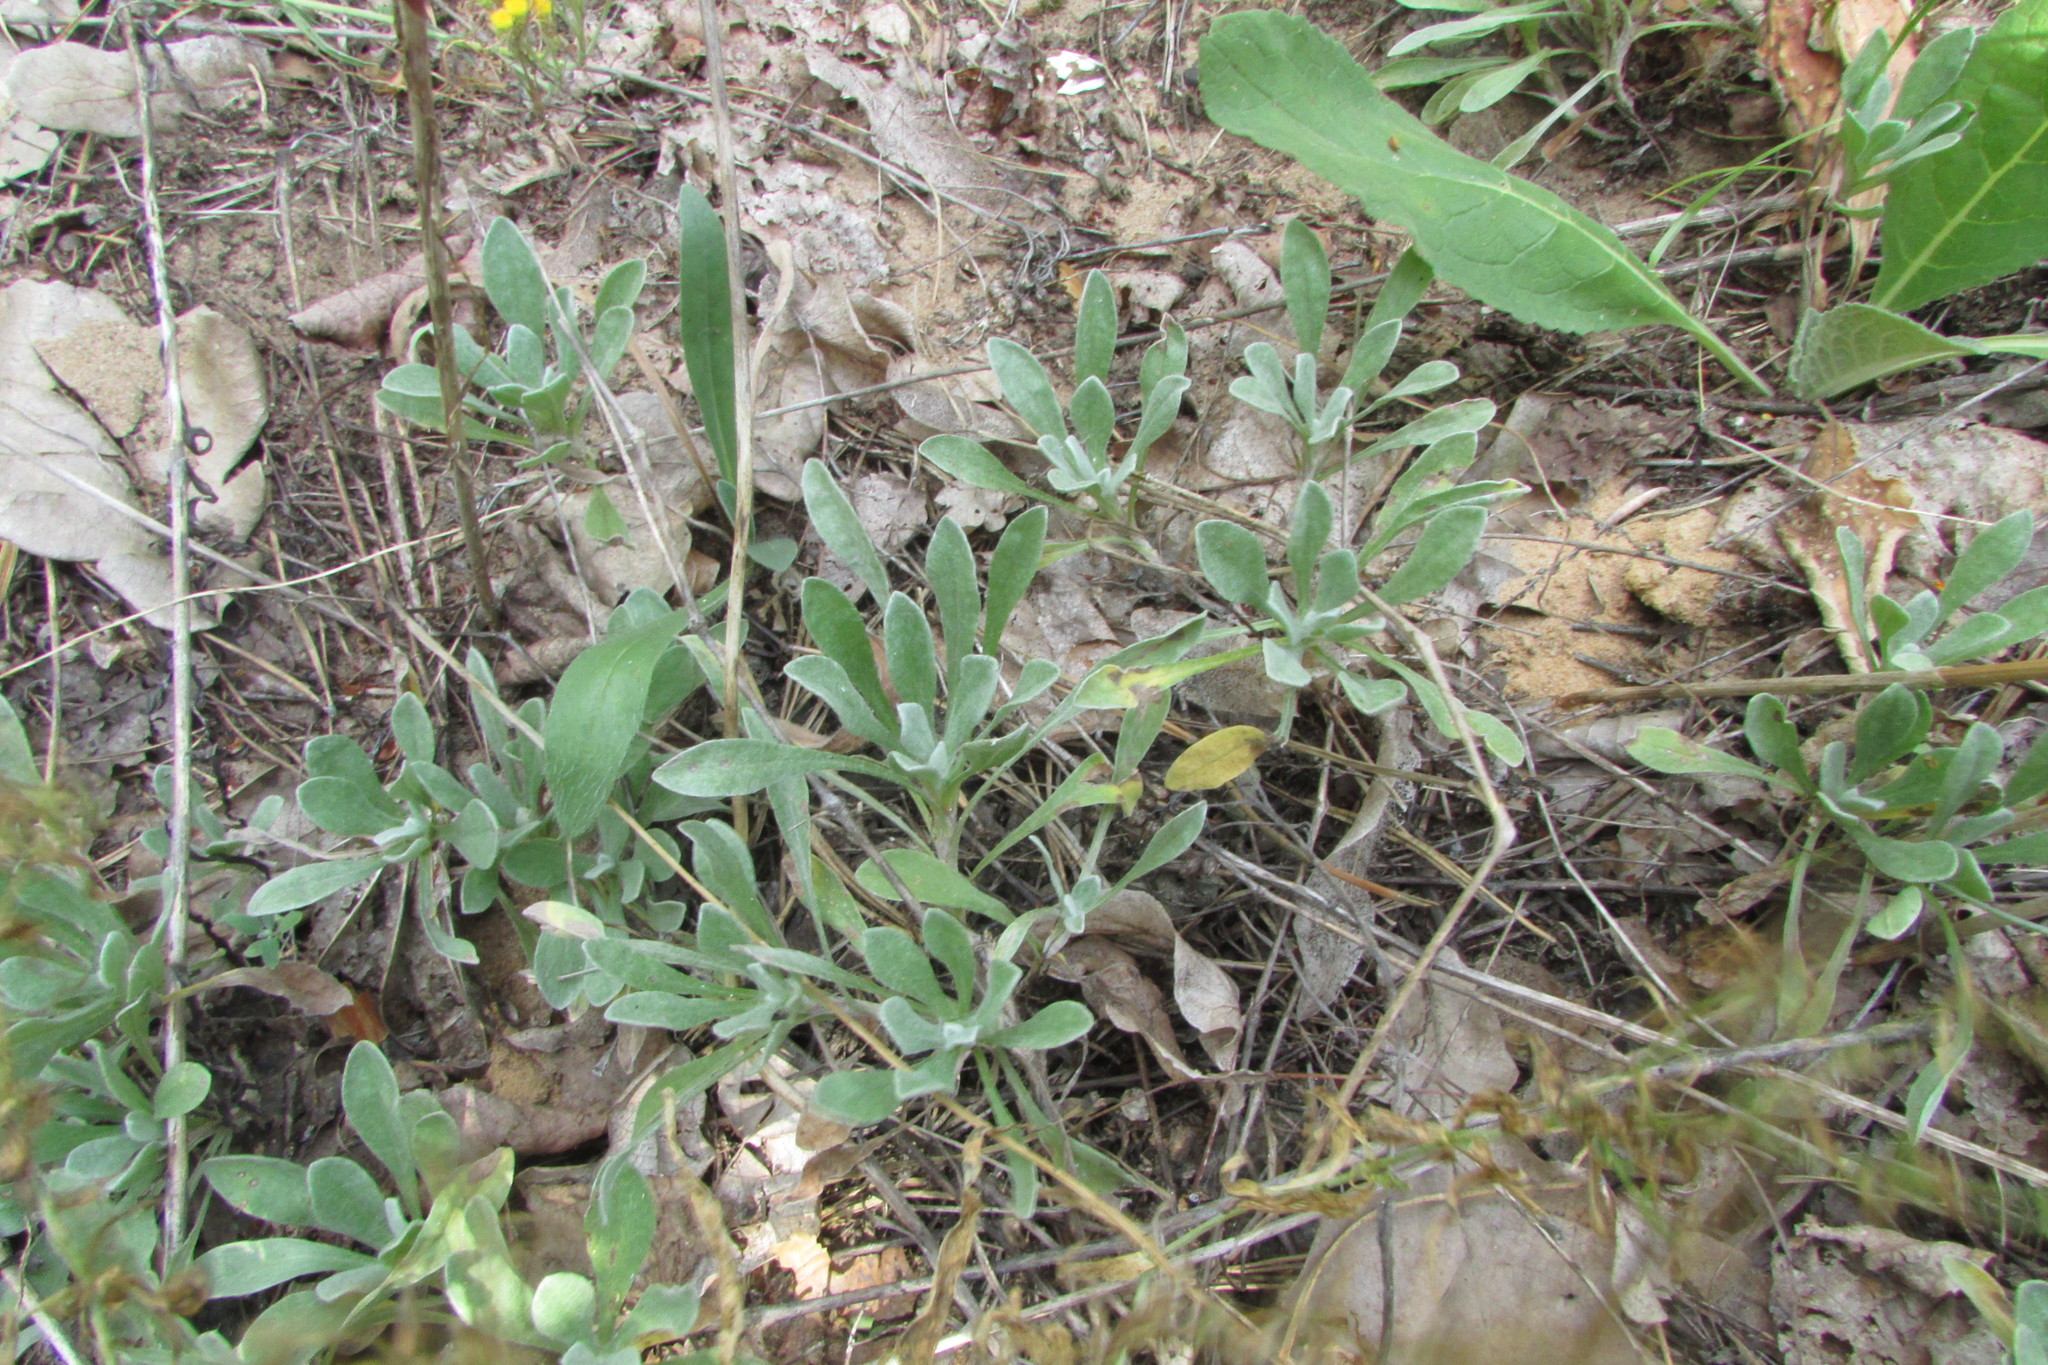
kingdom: Plantae
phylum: Tracheophyta
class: Magnoliopsida
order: Asterales
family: Asteraceae
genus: Antennaria
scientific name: Antennaria dioica
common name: Mountain everlasting
